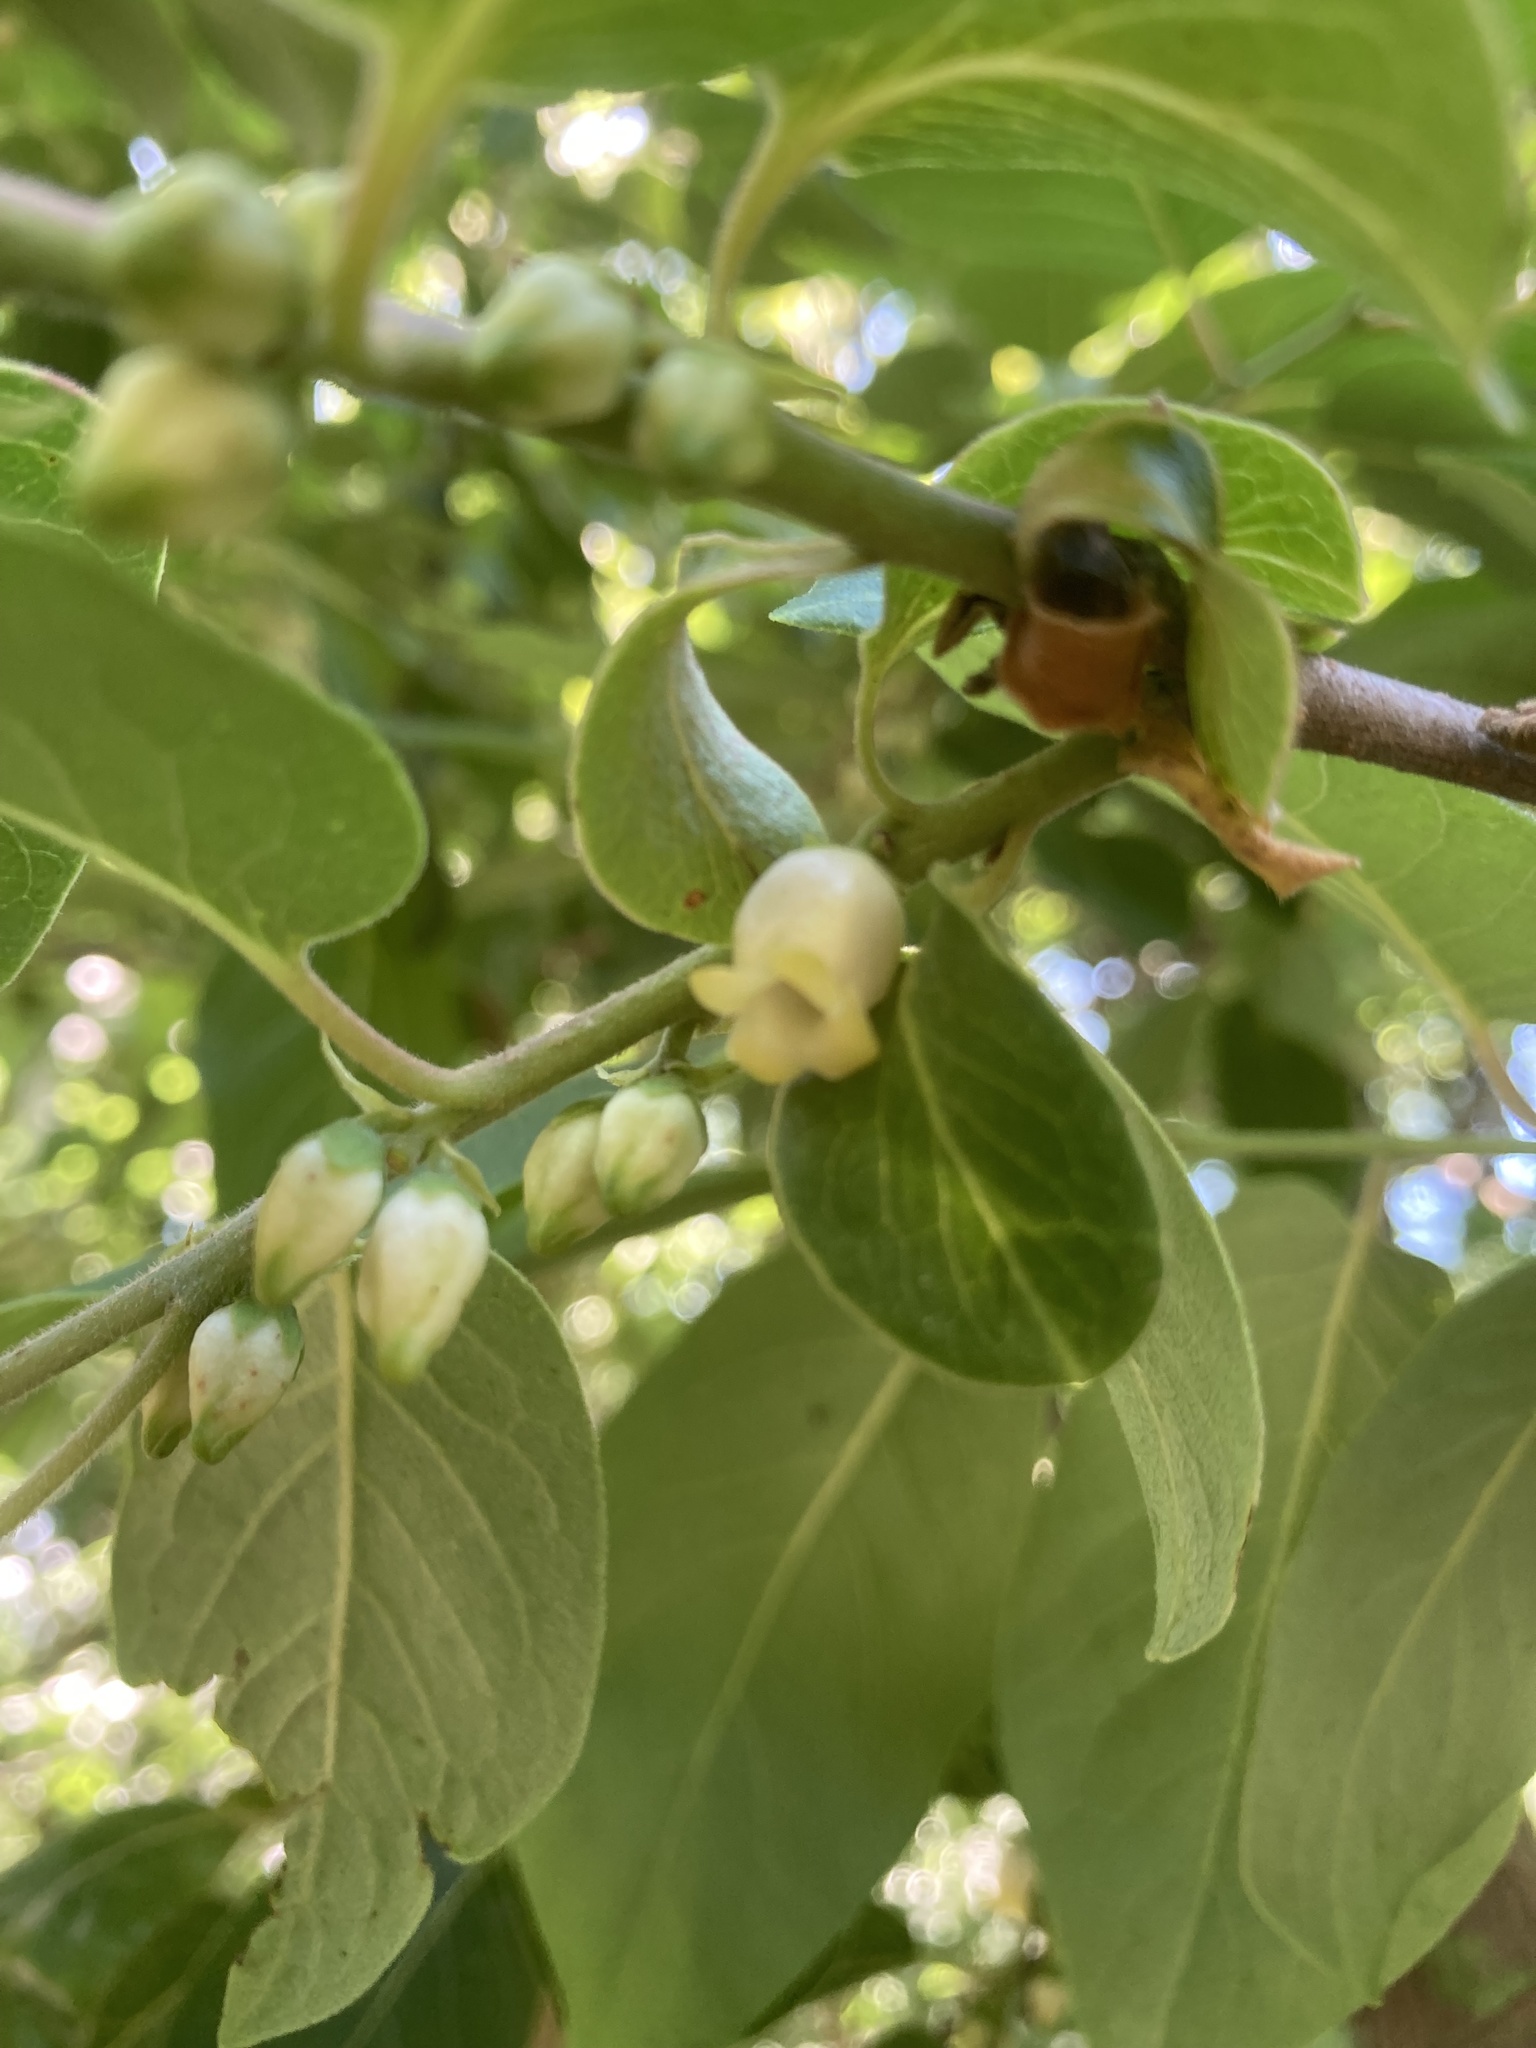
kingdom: Plantae
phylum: Tracheophyta
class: Magnoliopsida
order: Ericales
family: Ebenaceae
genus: Diospyros
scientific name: Diospyros virginiana
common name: Persimmon
